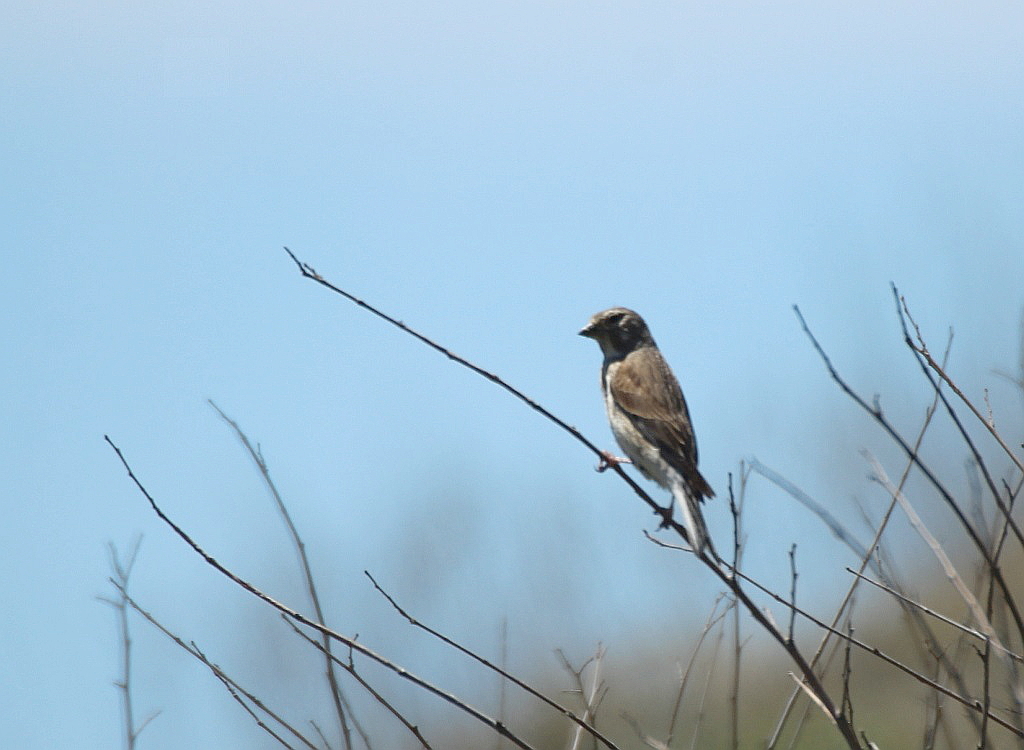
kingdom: Animalia
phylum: Chordata
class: Aves
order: Passeriformes
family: Fringillidae
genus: Linaria
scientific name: Linaria cannabina
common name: Common linnet
